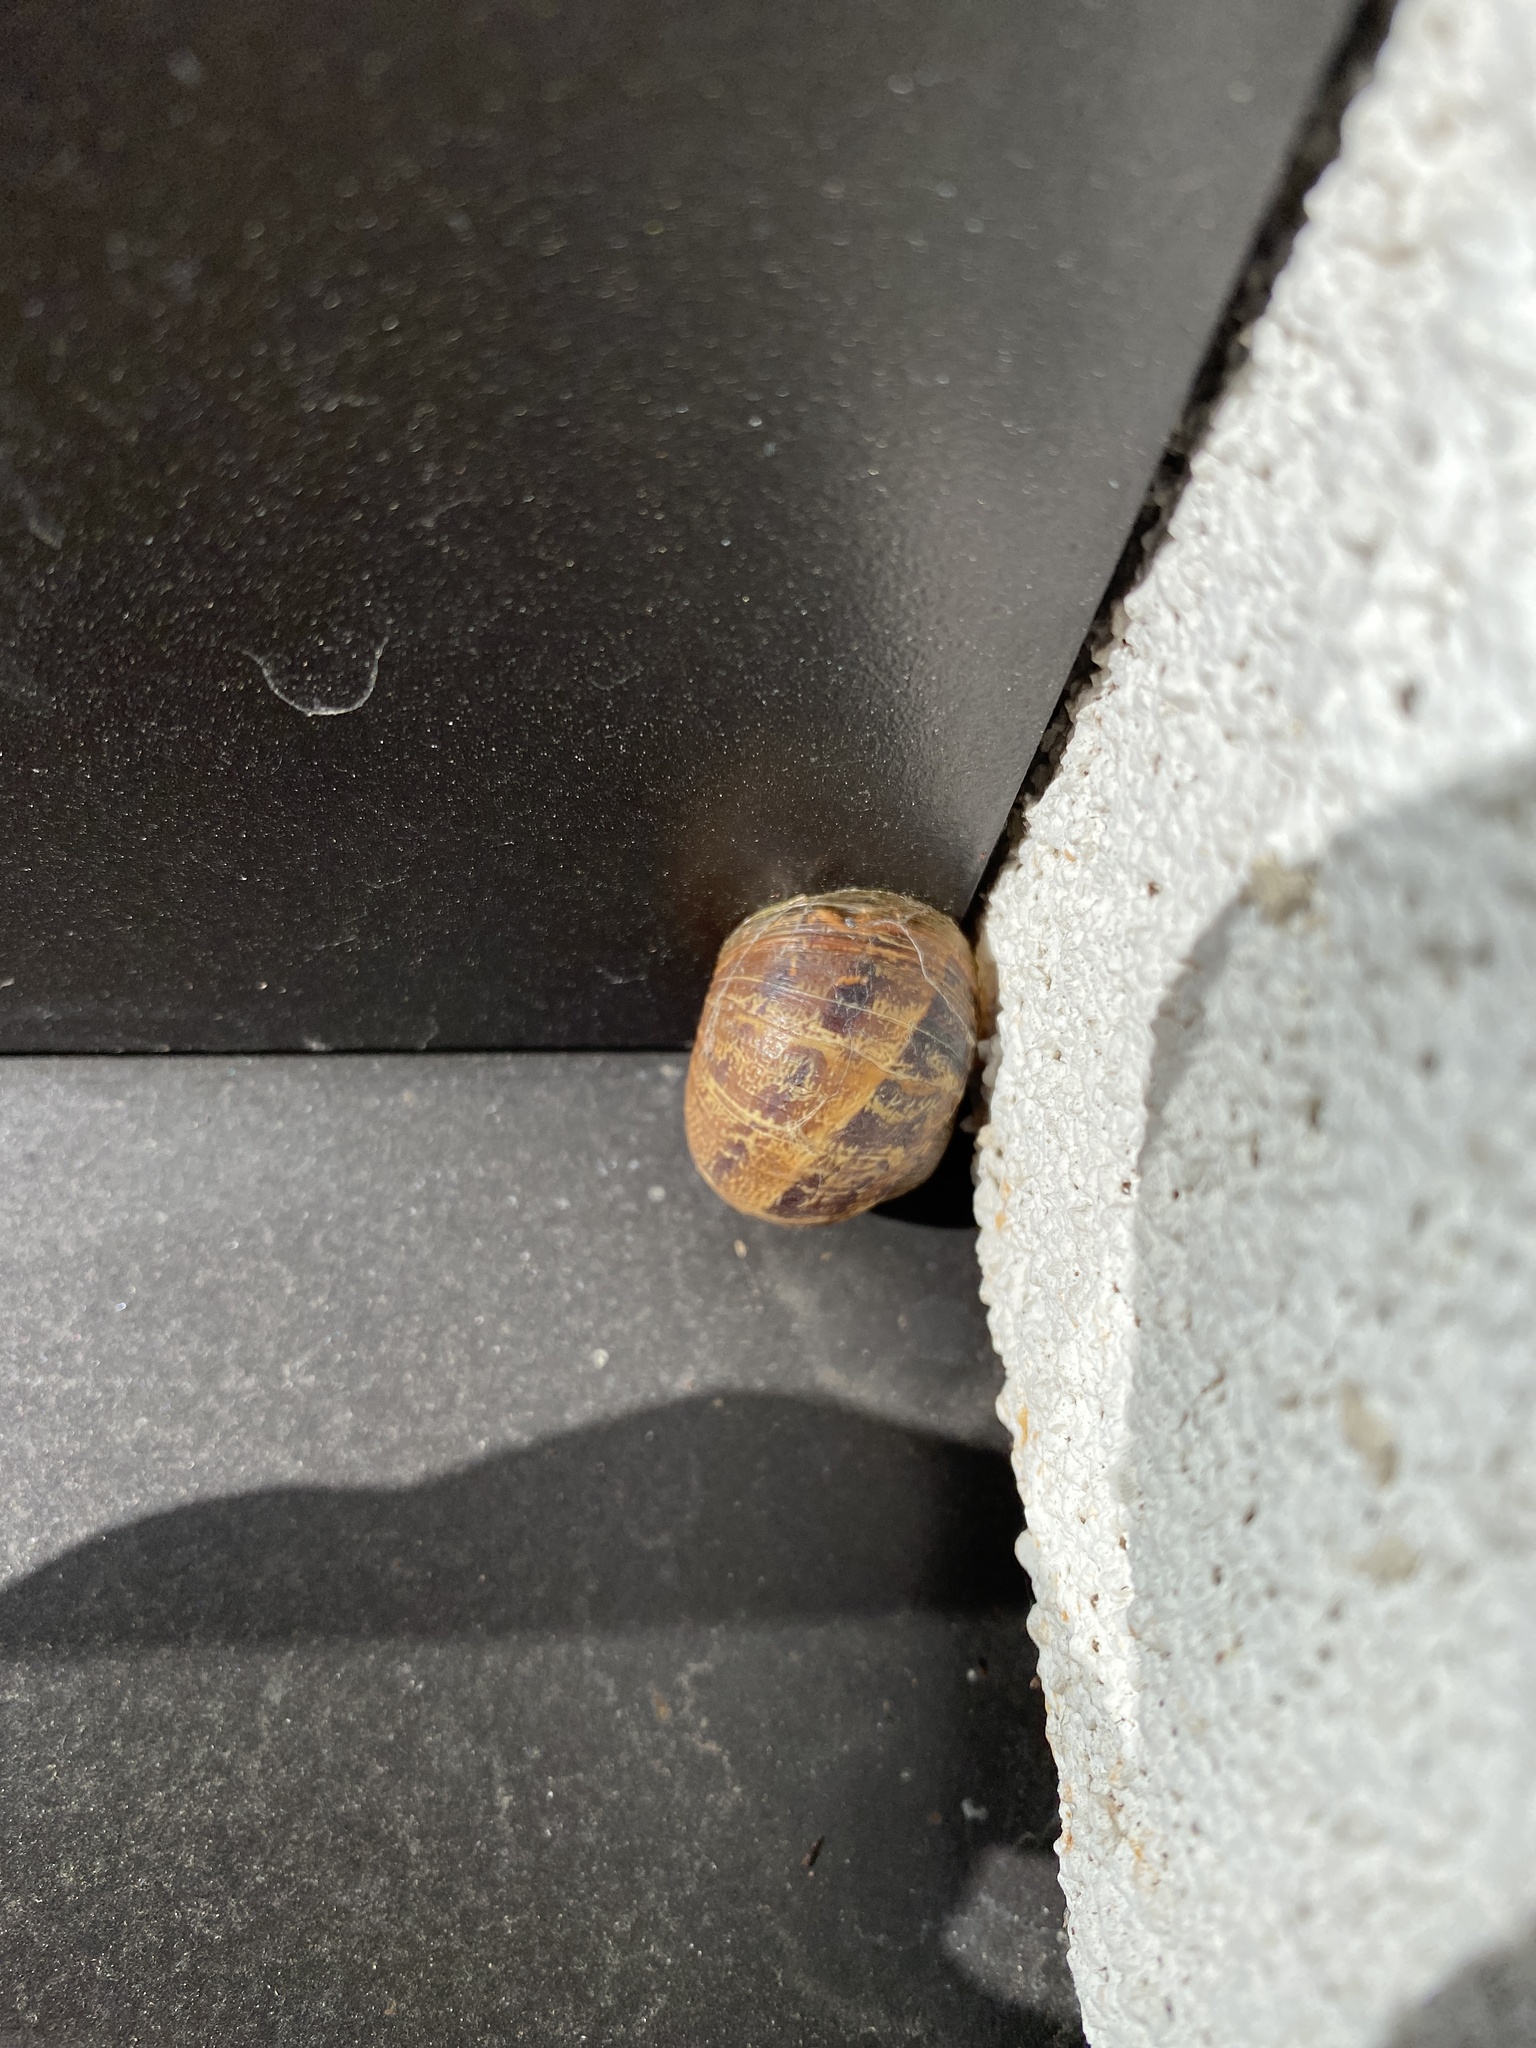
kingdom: Animalia
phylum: Mollusca
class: Gastropoda
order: Stylommatophora
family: Helicidae
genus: Cornu
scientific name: Cornu aspersum
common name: Brown garden snail
